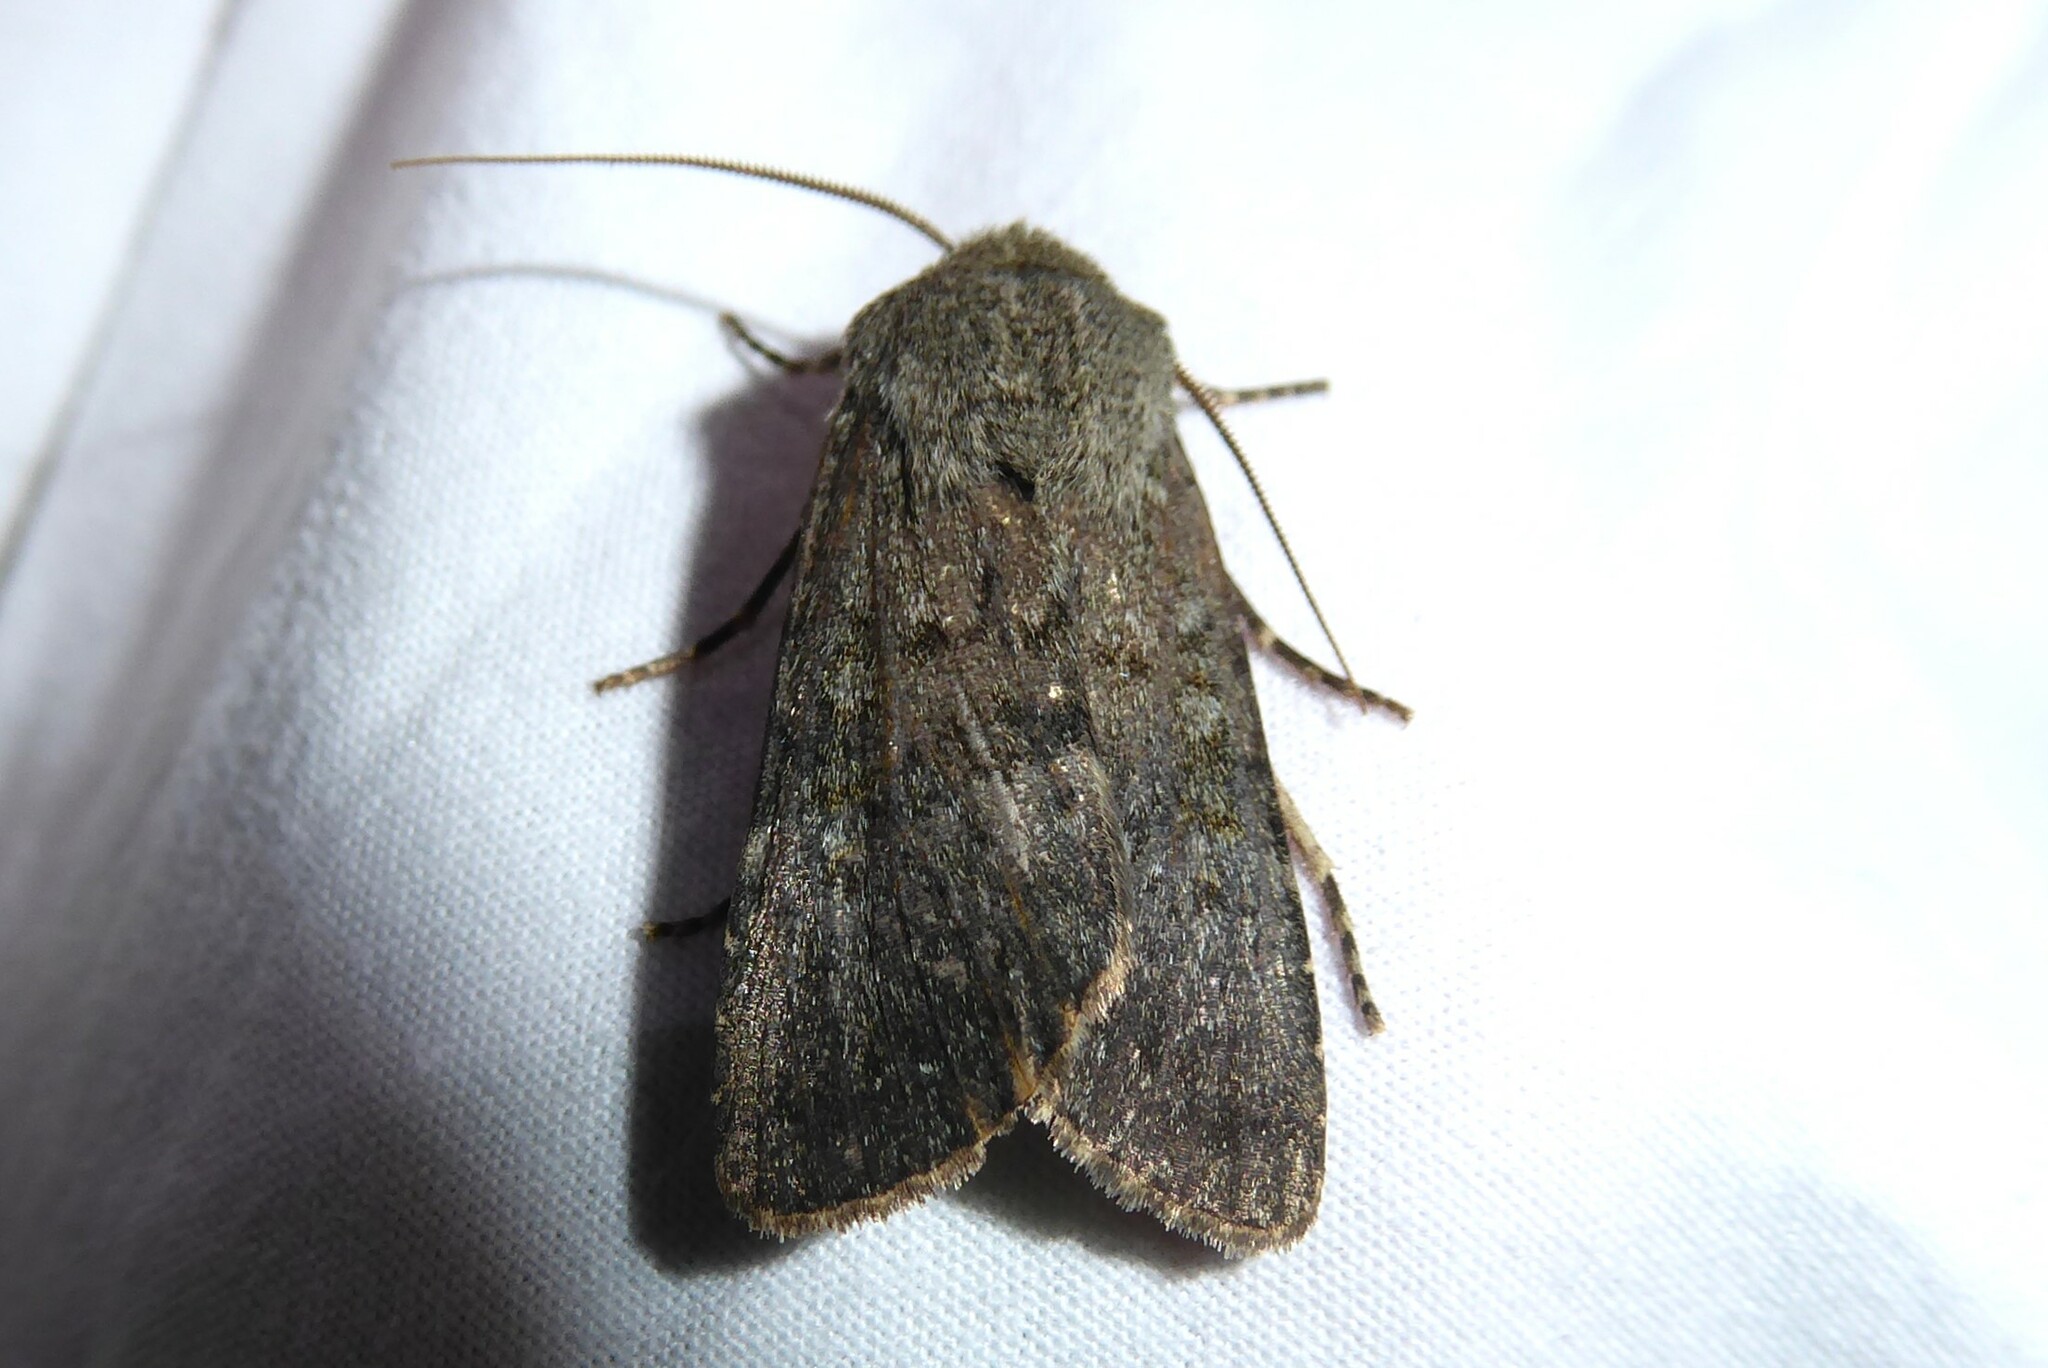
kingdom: Animalia
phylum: Arthropoda
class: Insecta
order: Lepidoptera
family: Noctuidae
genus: Ichneutica
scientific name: Ichneutica moderata
